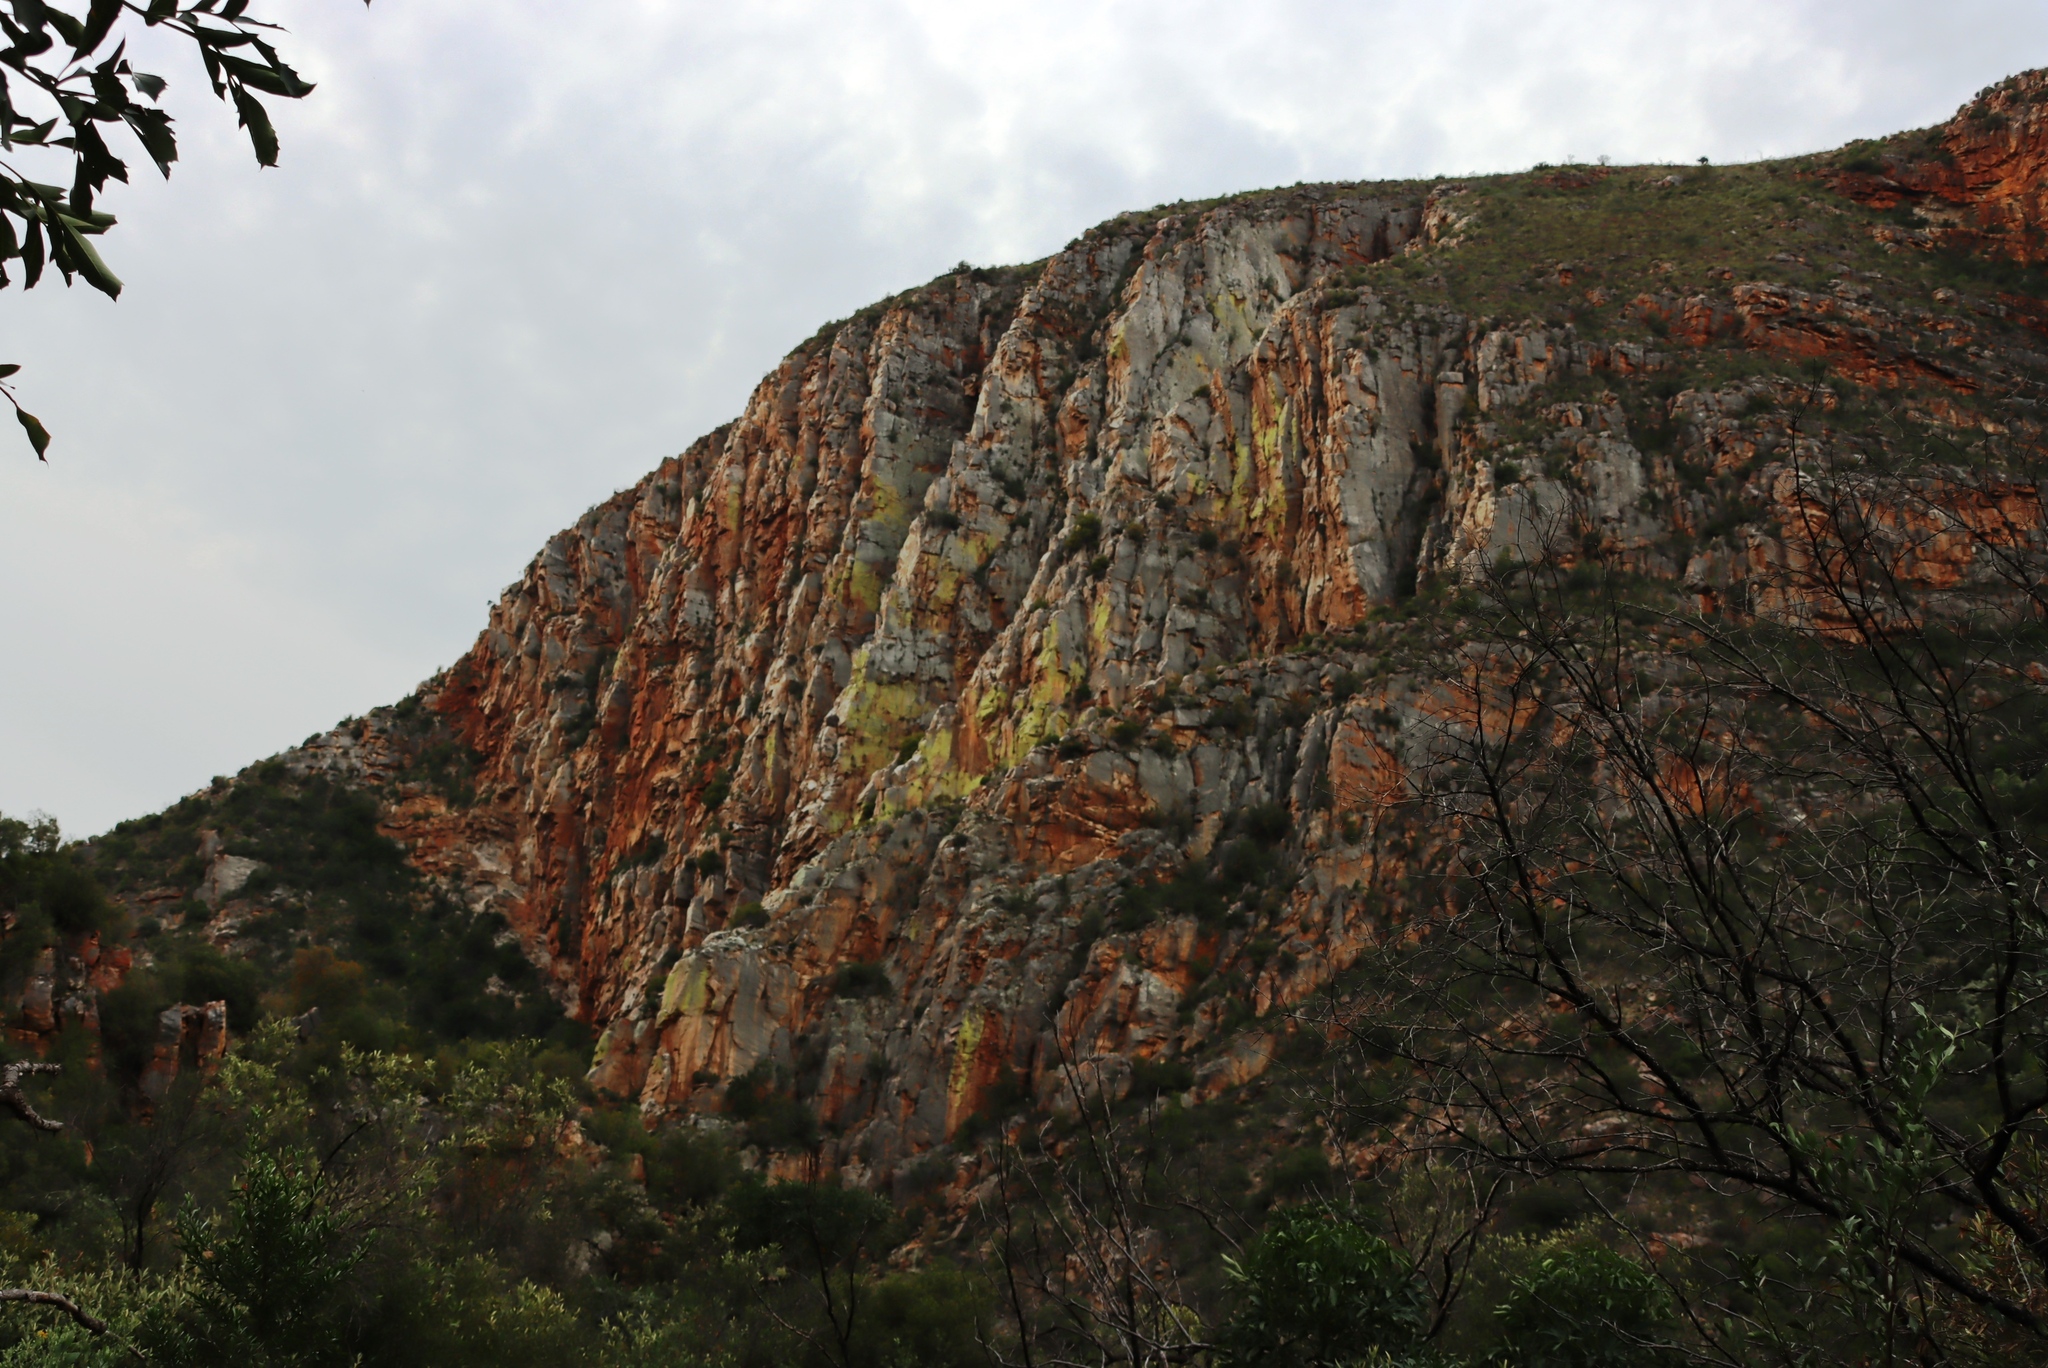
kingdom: Fungi
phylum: Ascomycota
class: Lecanoromycetes
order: Caliciales
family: Caliciaceae
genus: Dermatiscum
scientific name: Dermatiscum thunbergii
